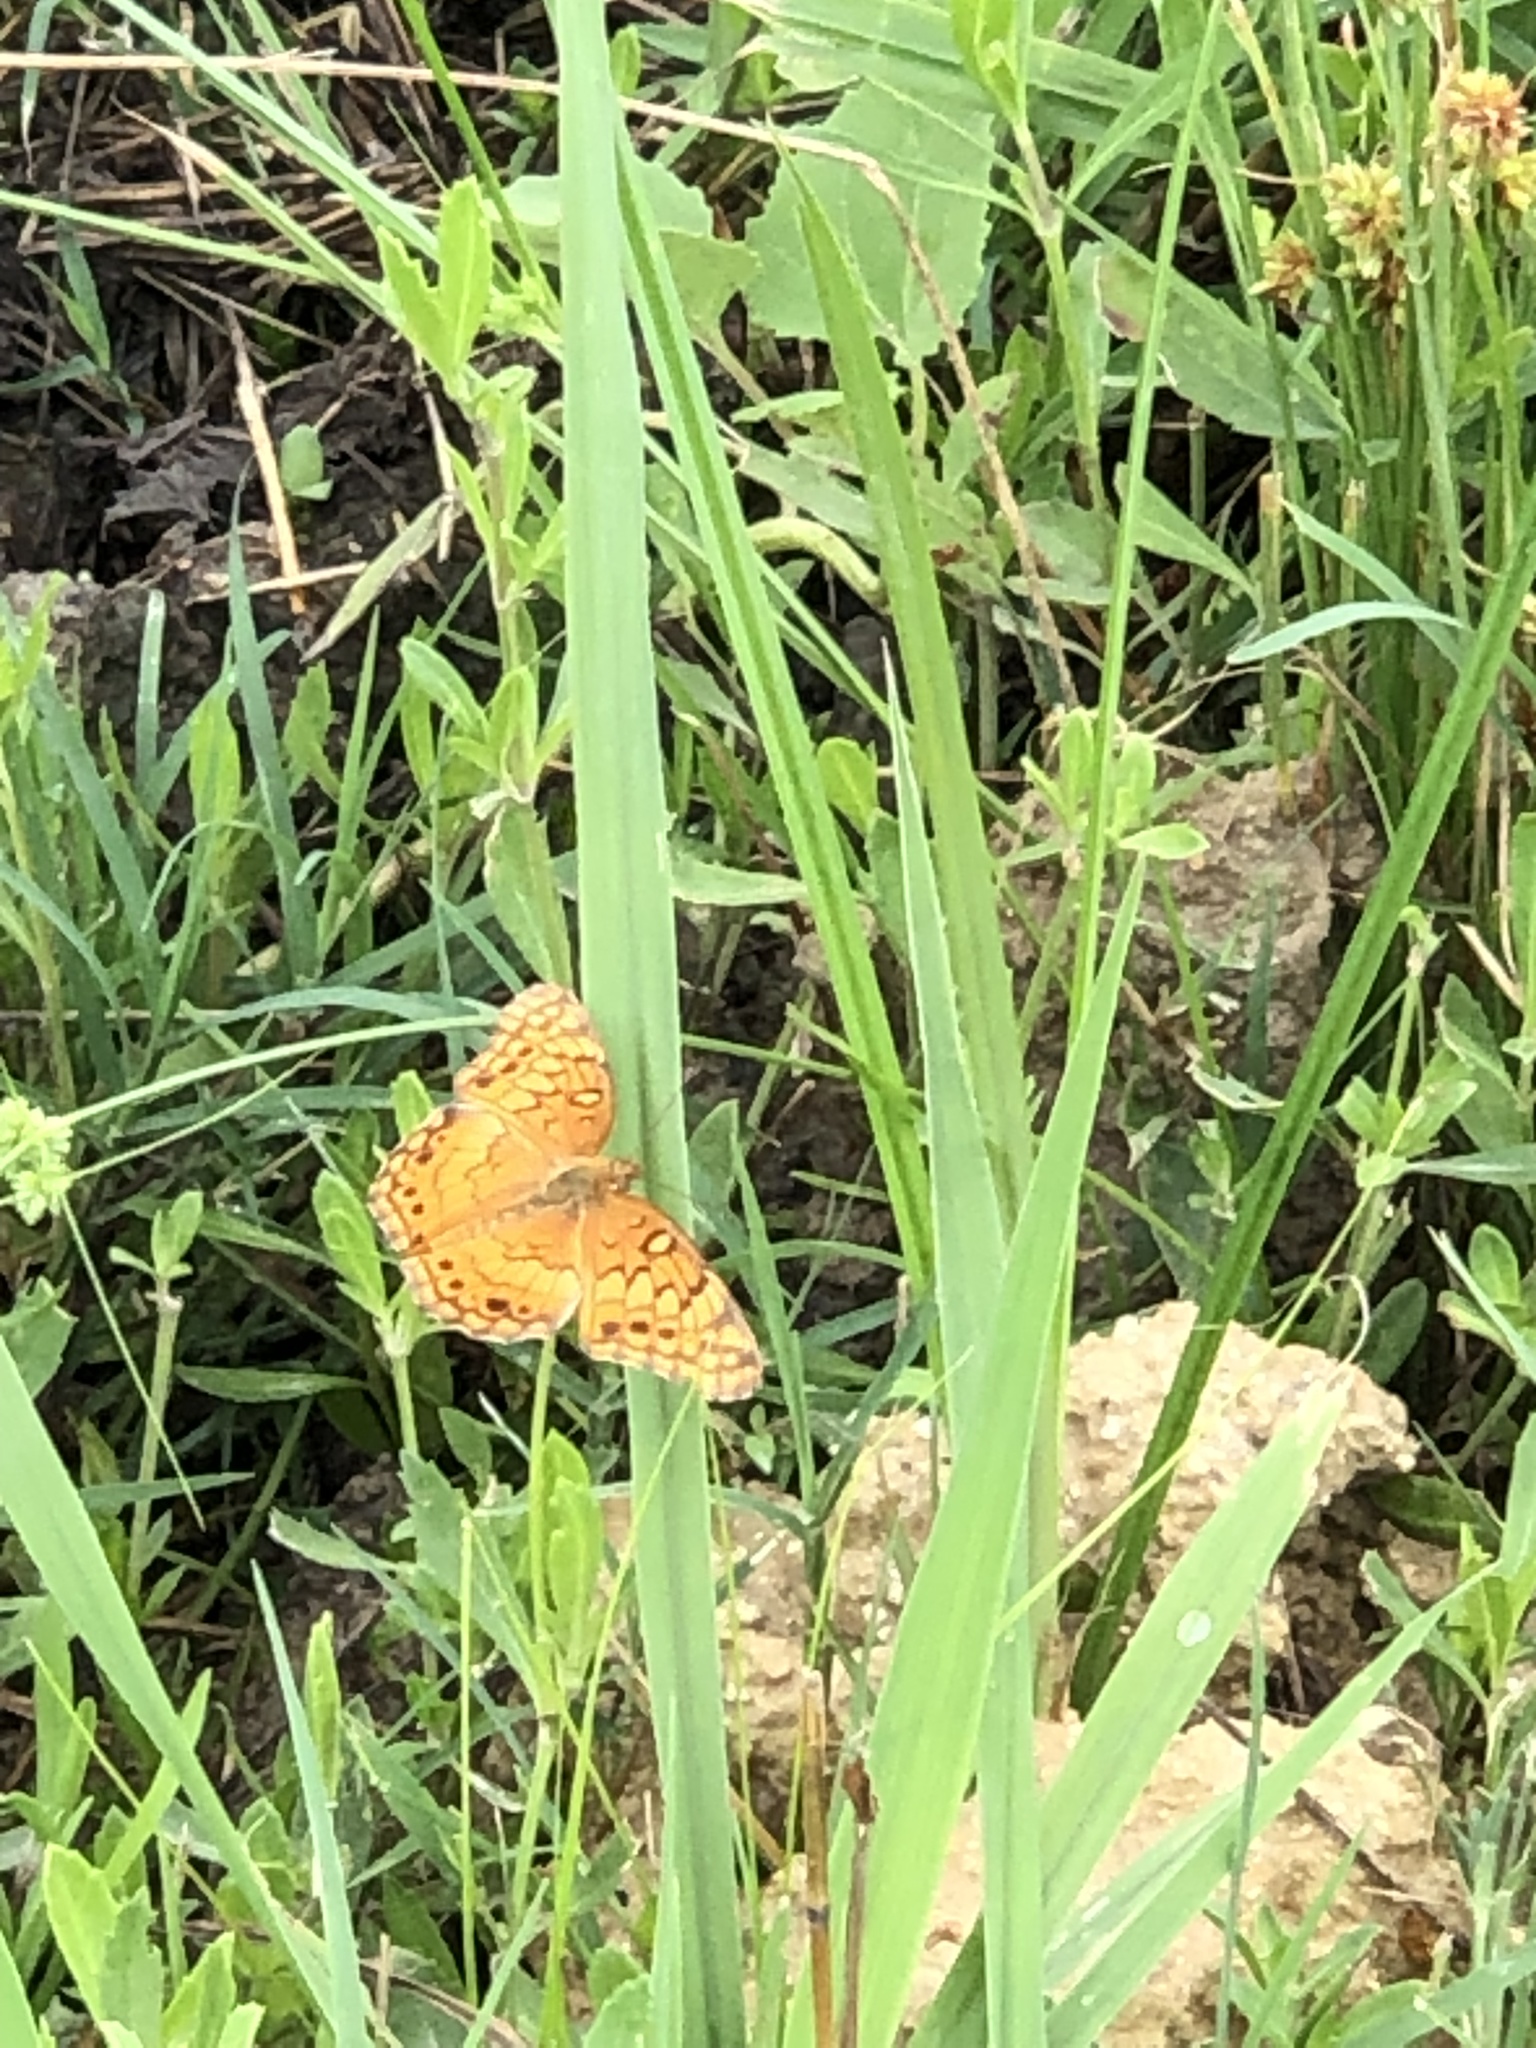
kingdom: Animalia
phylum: Arthropoda
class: Insecta
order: Lepidoptera
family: Nymphalidae
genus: Euptoieta
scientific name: Euptoieta claudia
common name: Variegated fritillary
